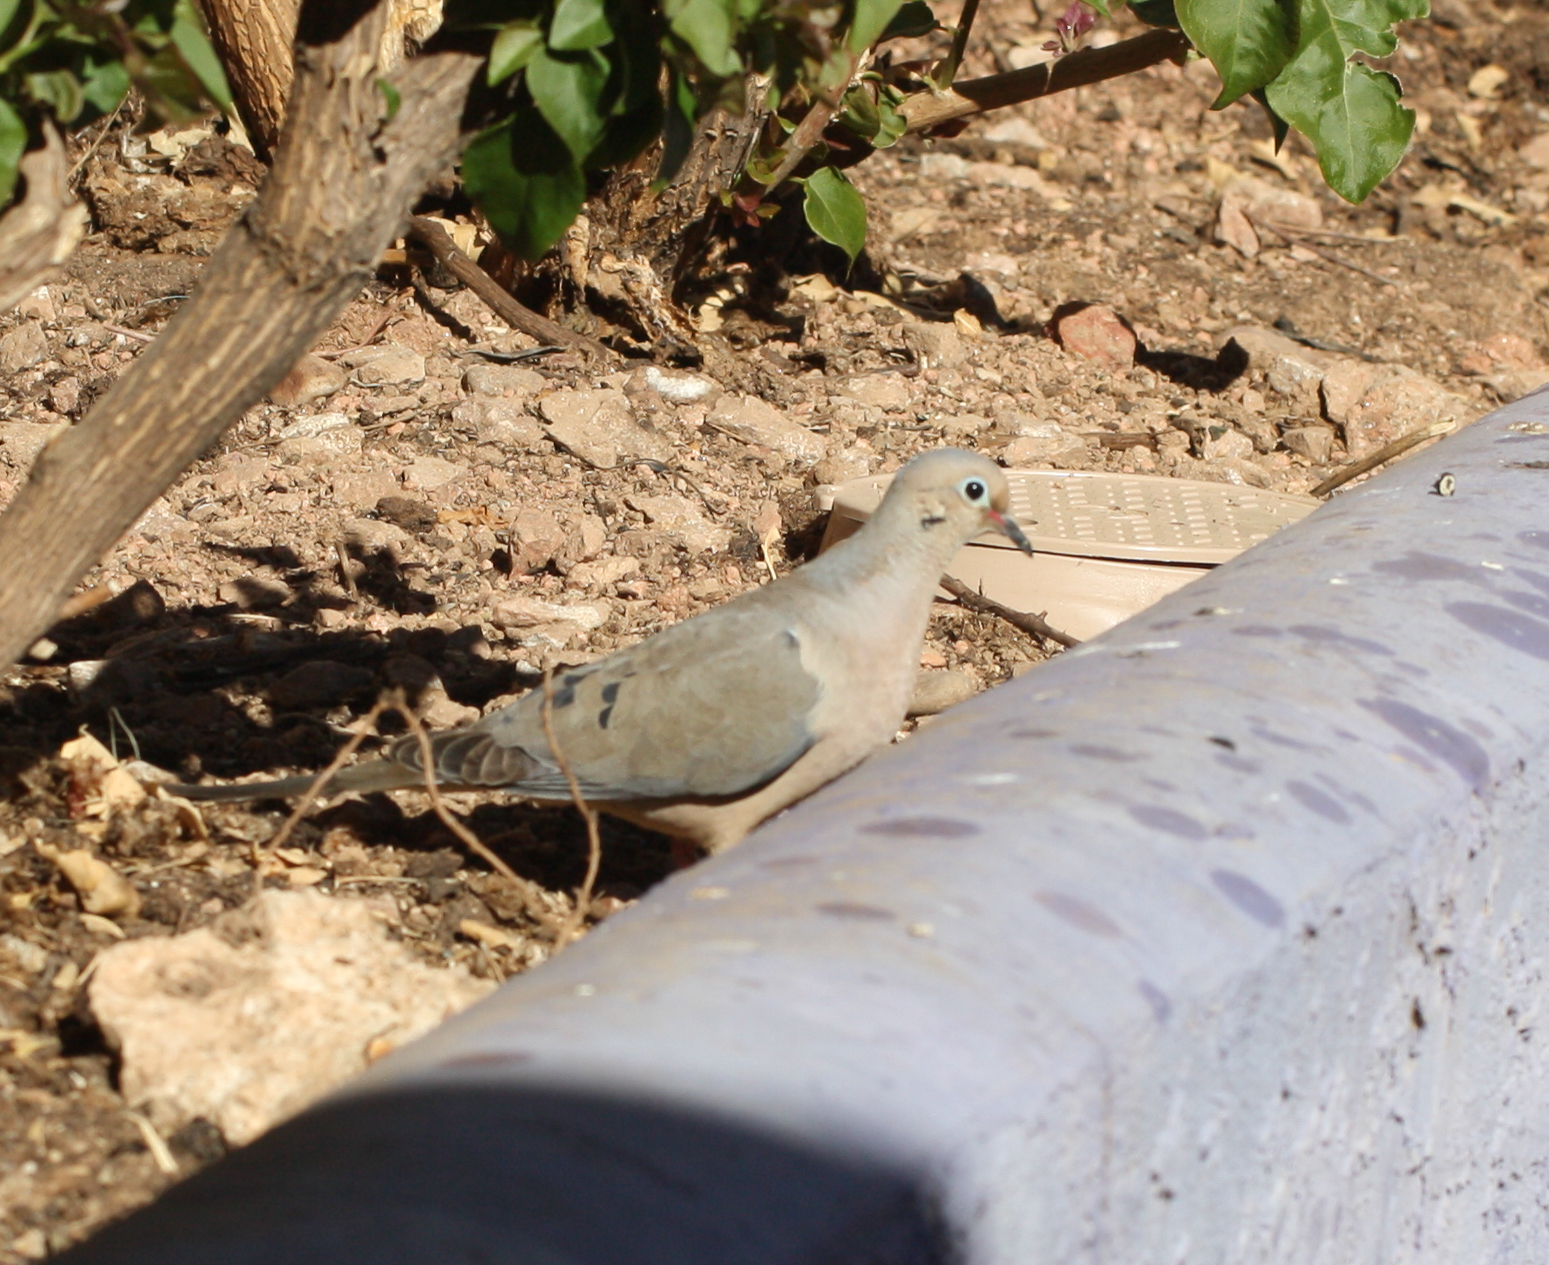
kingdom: Animalia
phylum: Chordata
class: Aves
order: Columbiformes
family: Columbidae
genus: Zenaida
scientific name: Zenaida macroura
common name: Mourning dove
